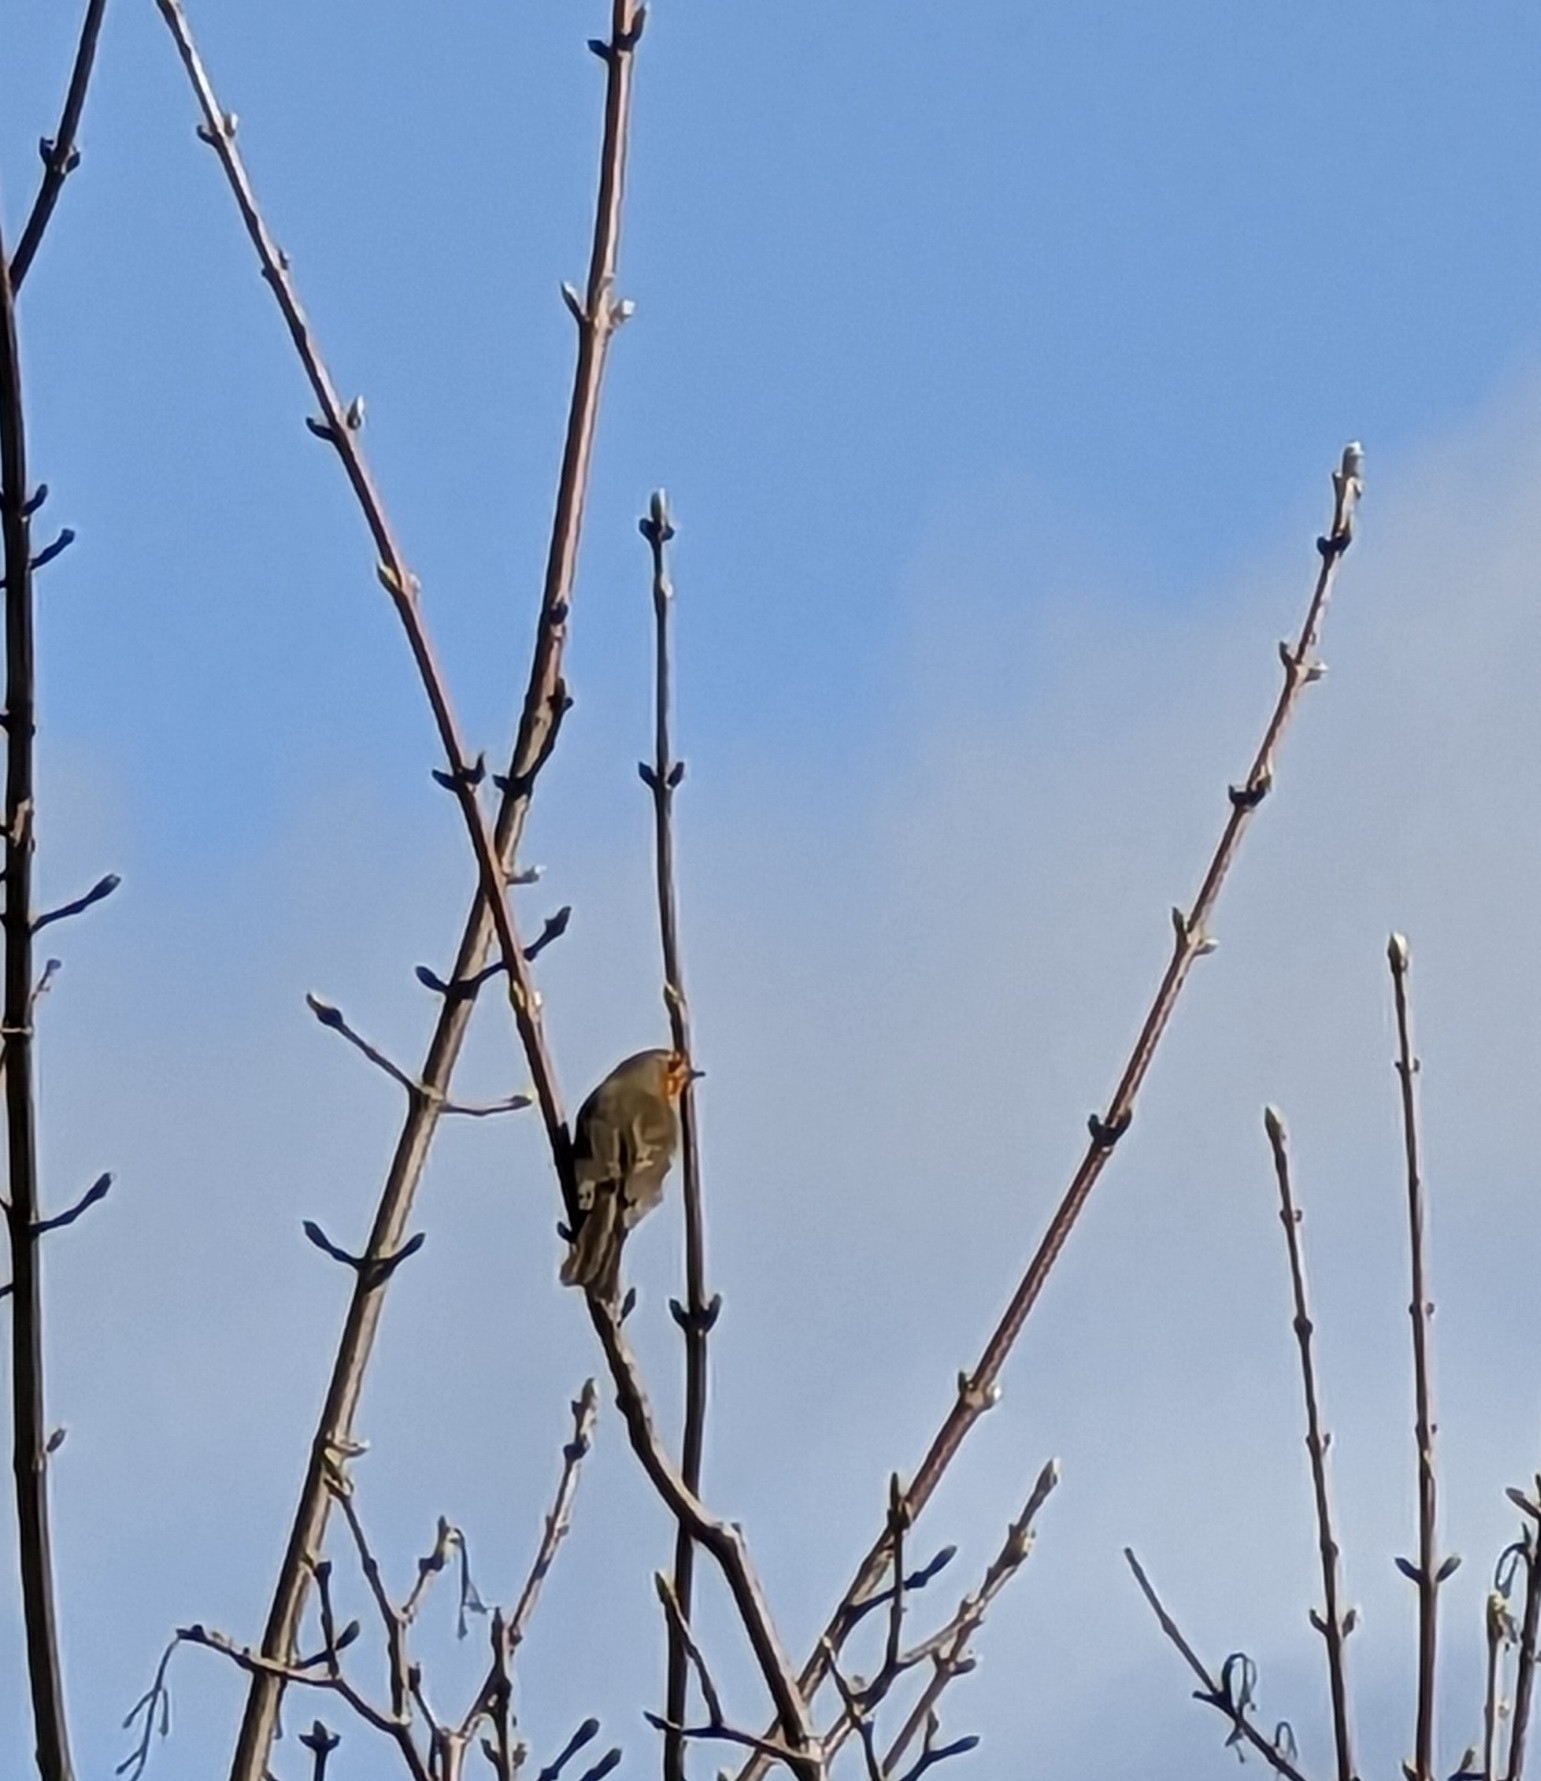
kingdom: Animalia
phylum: Chordata
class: Aves
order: Passeriformes
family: Muscicapidae
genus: Erithacus
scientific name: Erithacus rubecula
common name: European robin
